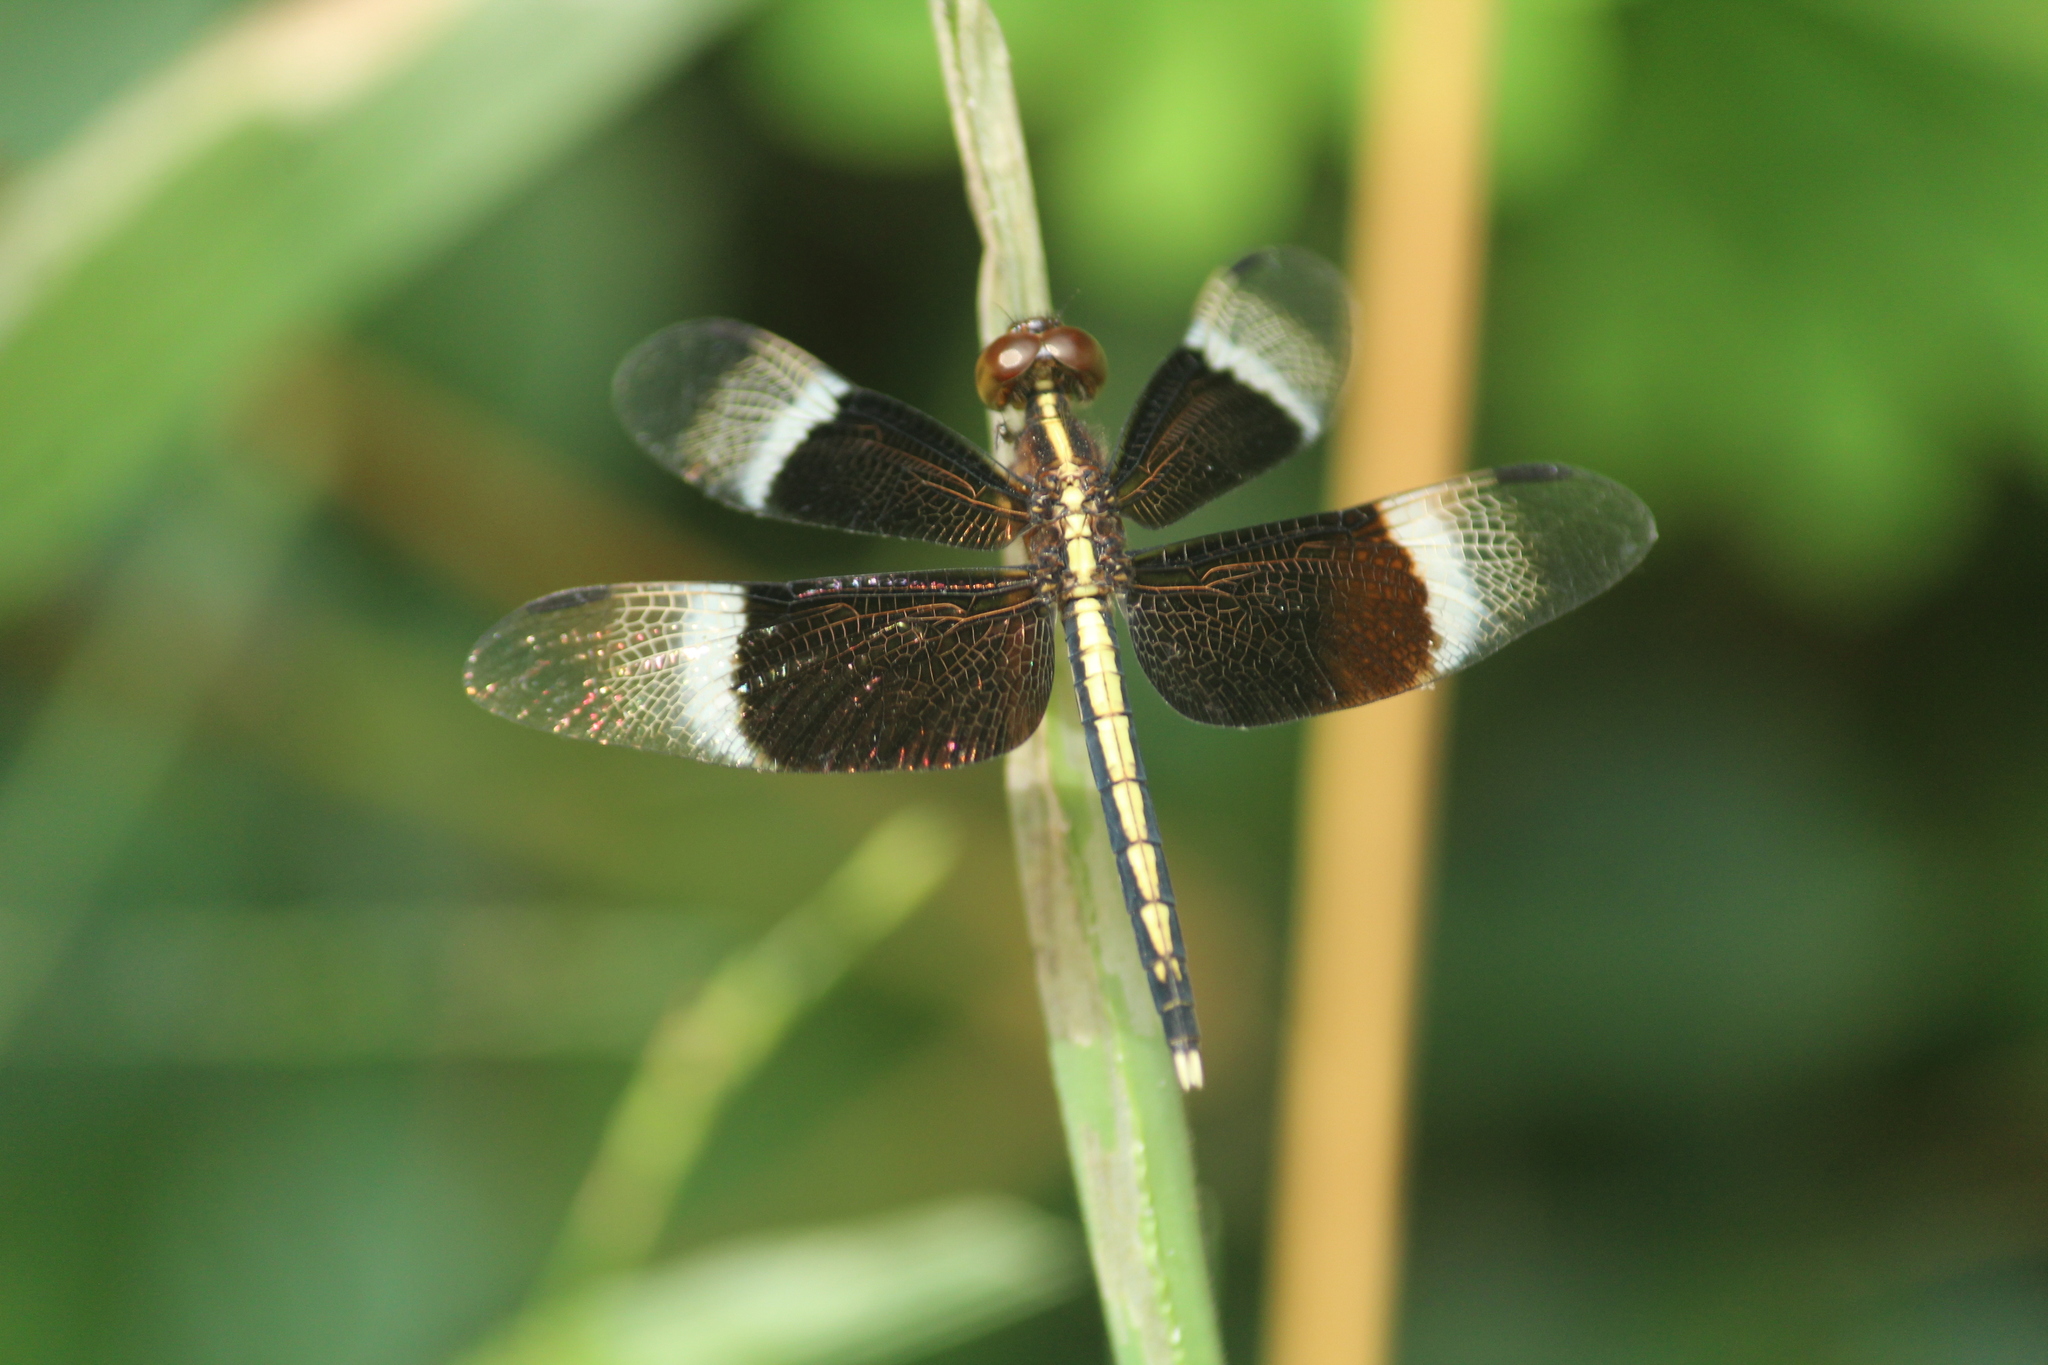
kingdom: Animalia
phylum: Arthropoda
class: Insecta
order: Odonata
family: Libellulidae
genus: Neurothemis
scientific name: Neurothemis tullia
